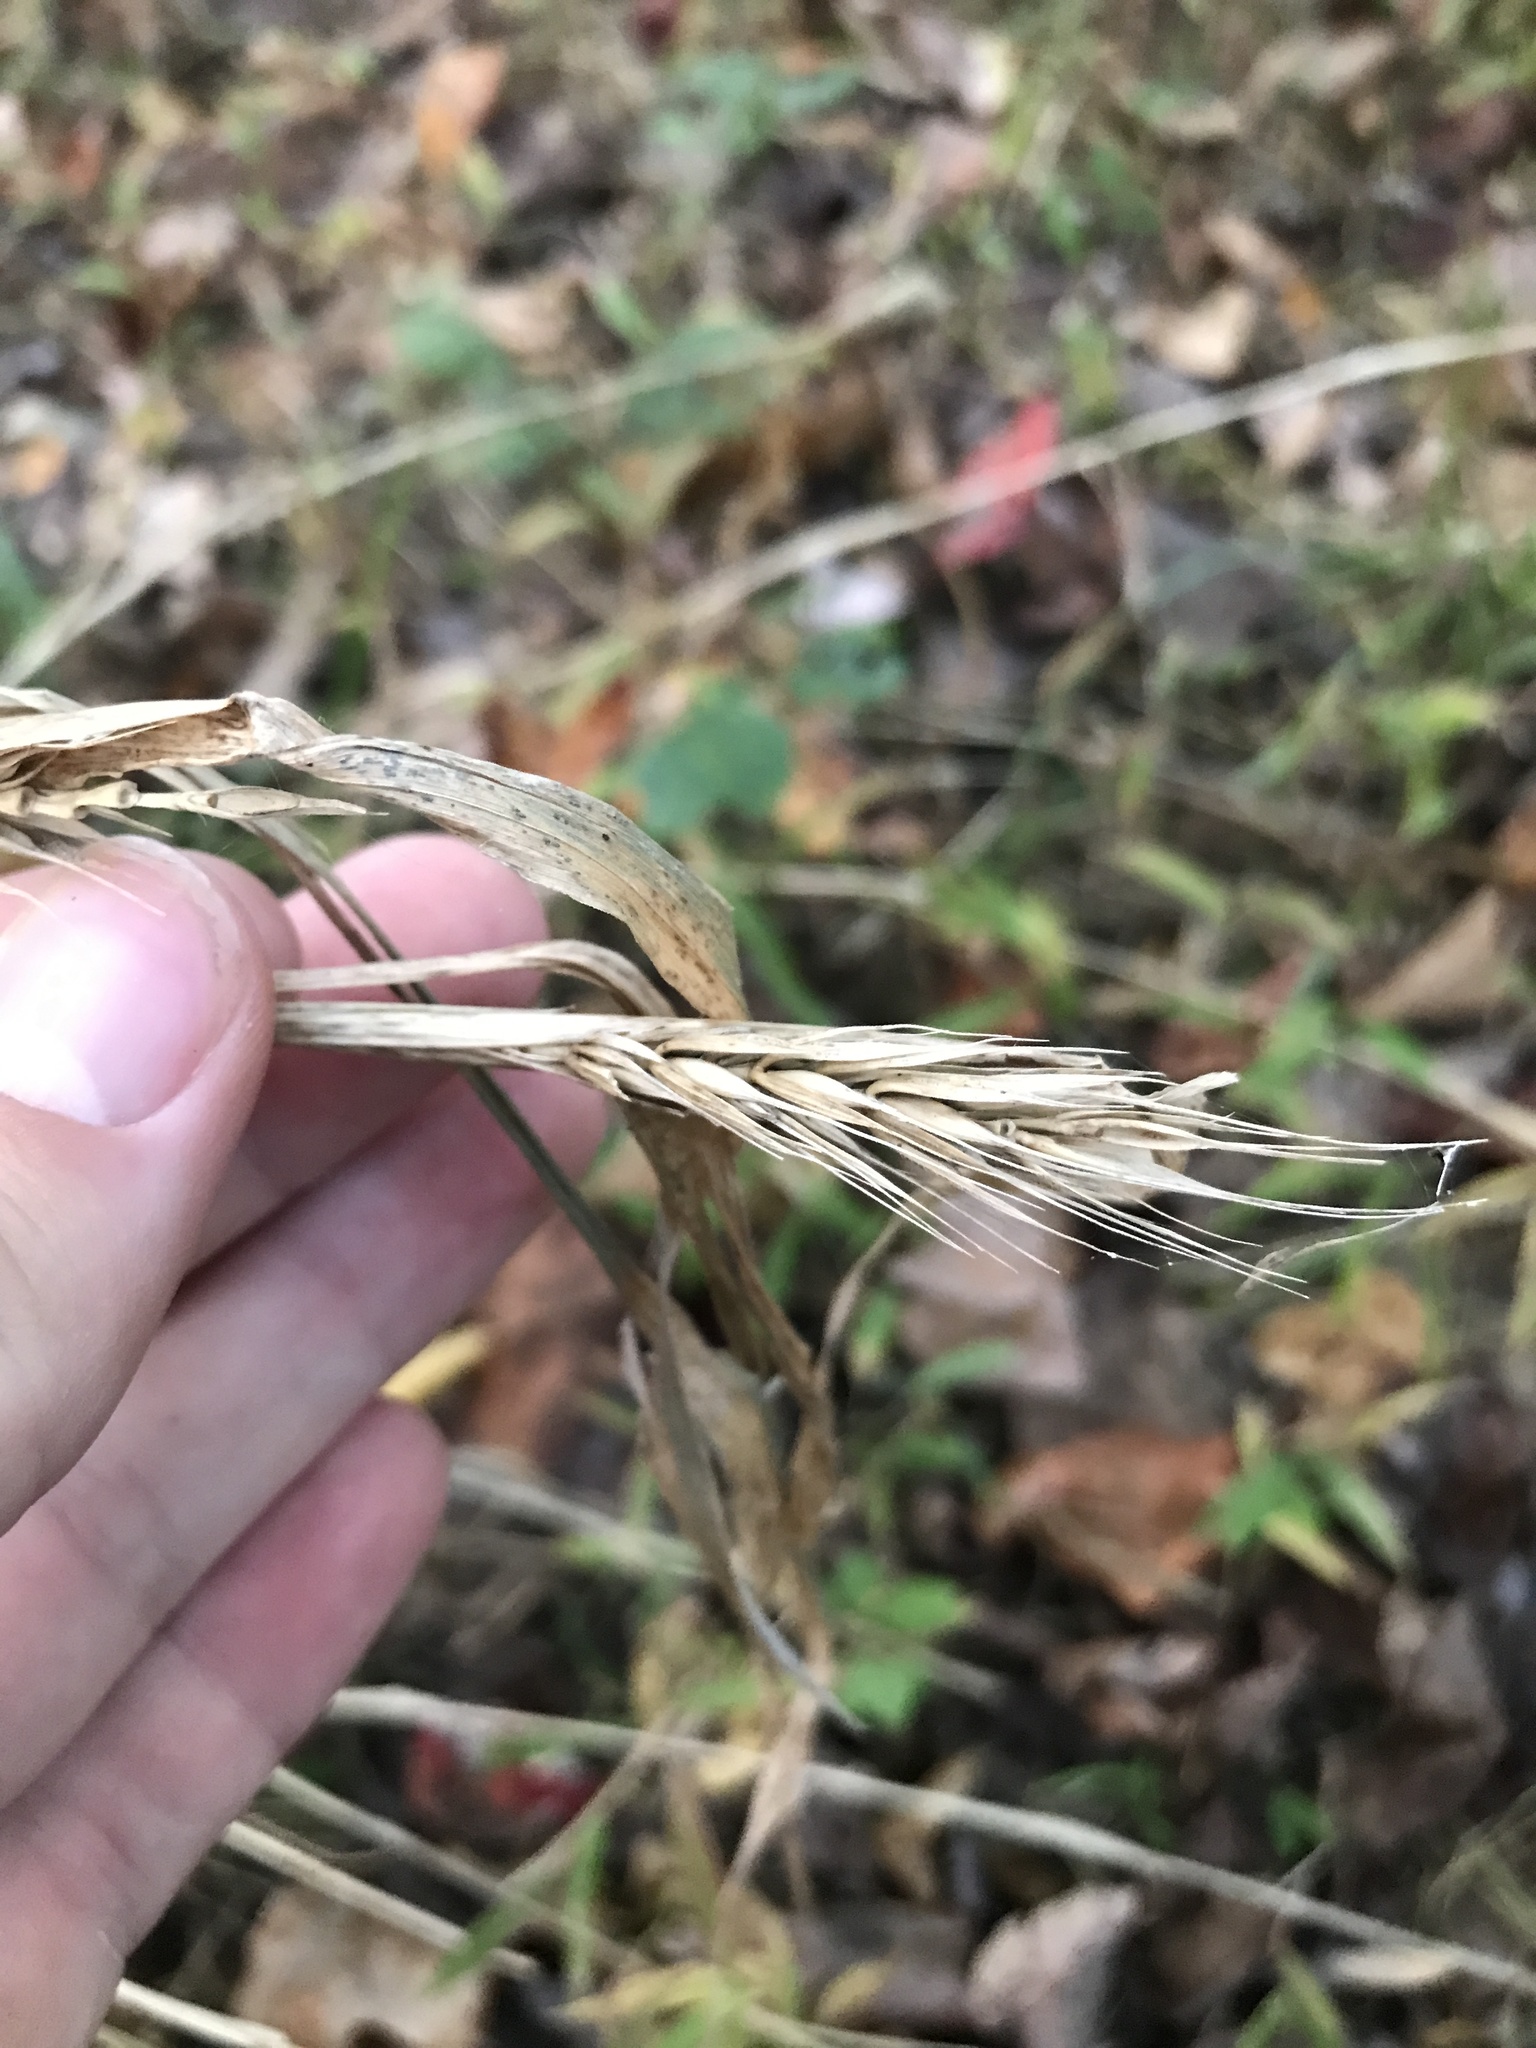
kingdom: Plantae
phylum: Tracheophyta
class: Liliopsida
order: Poales
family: Poaceae
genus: Elymus
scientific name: Elymus virginicus
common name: Common eastern wildrye
